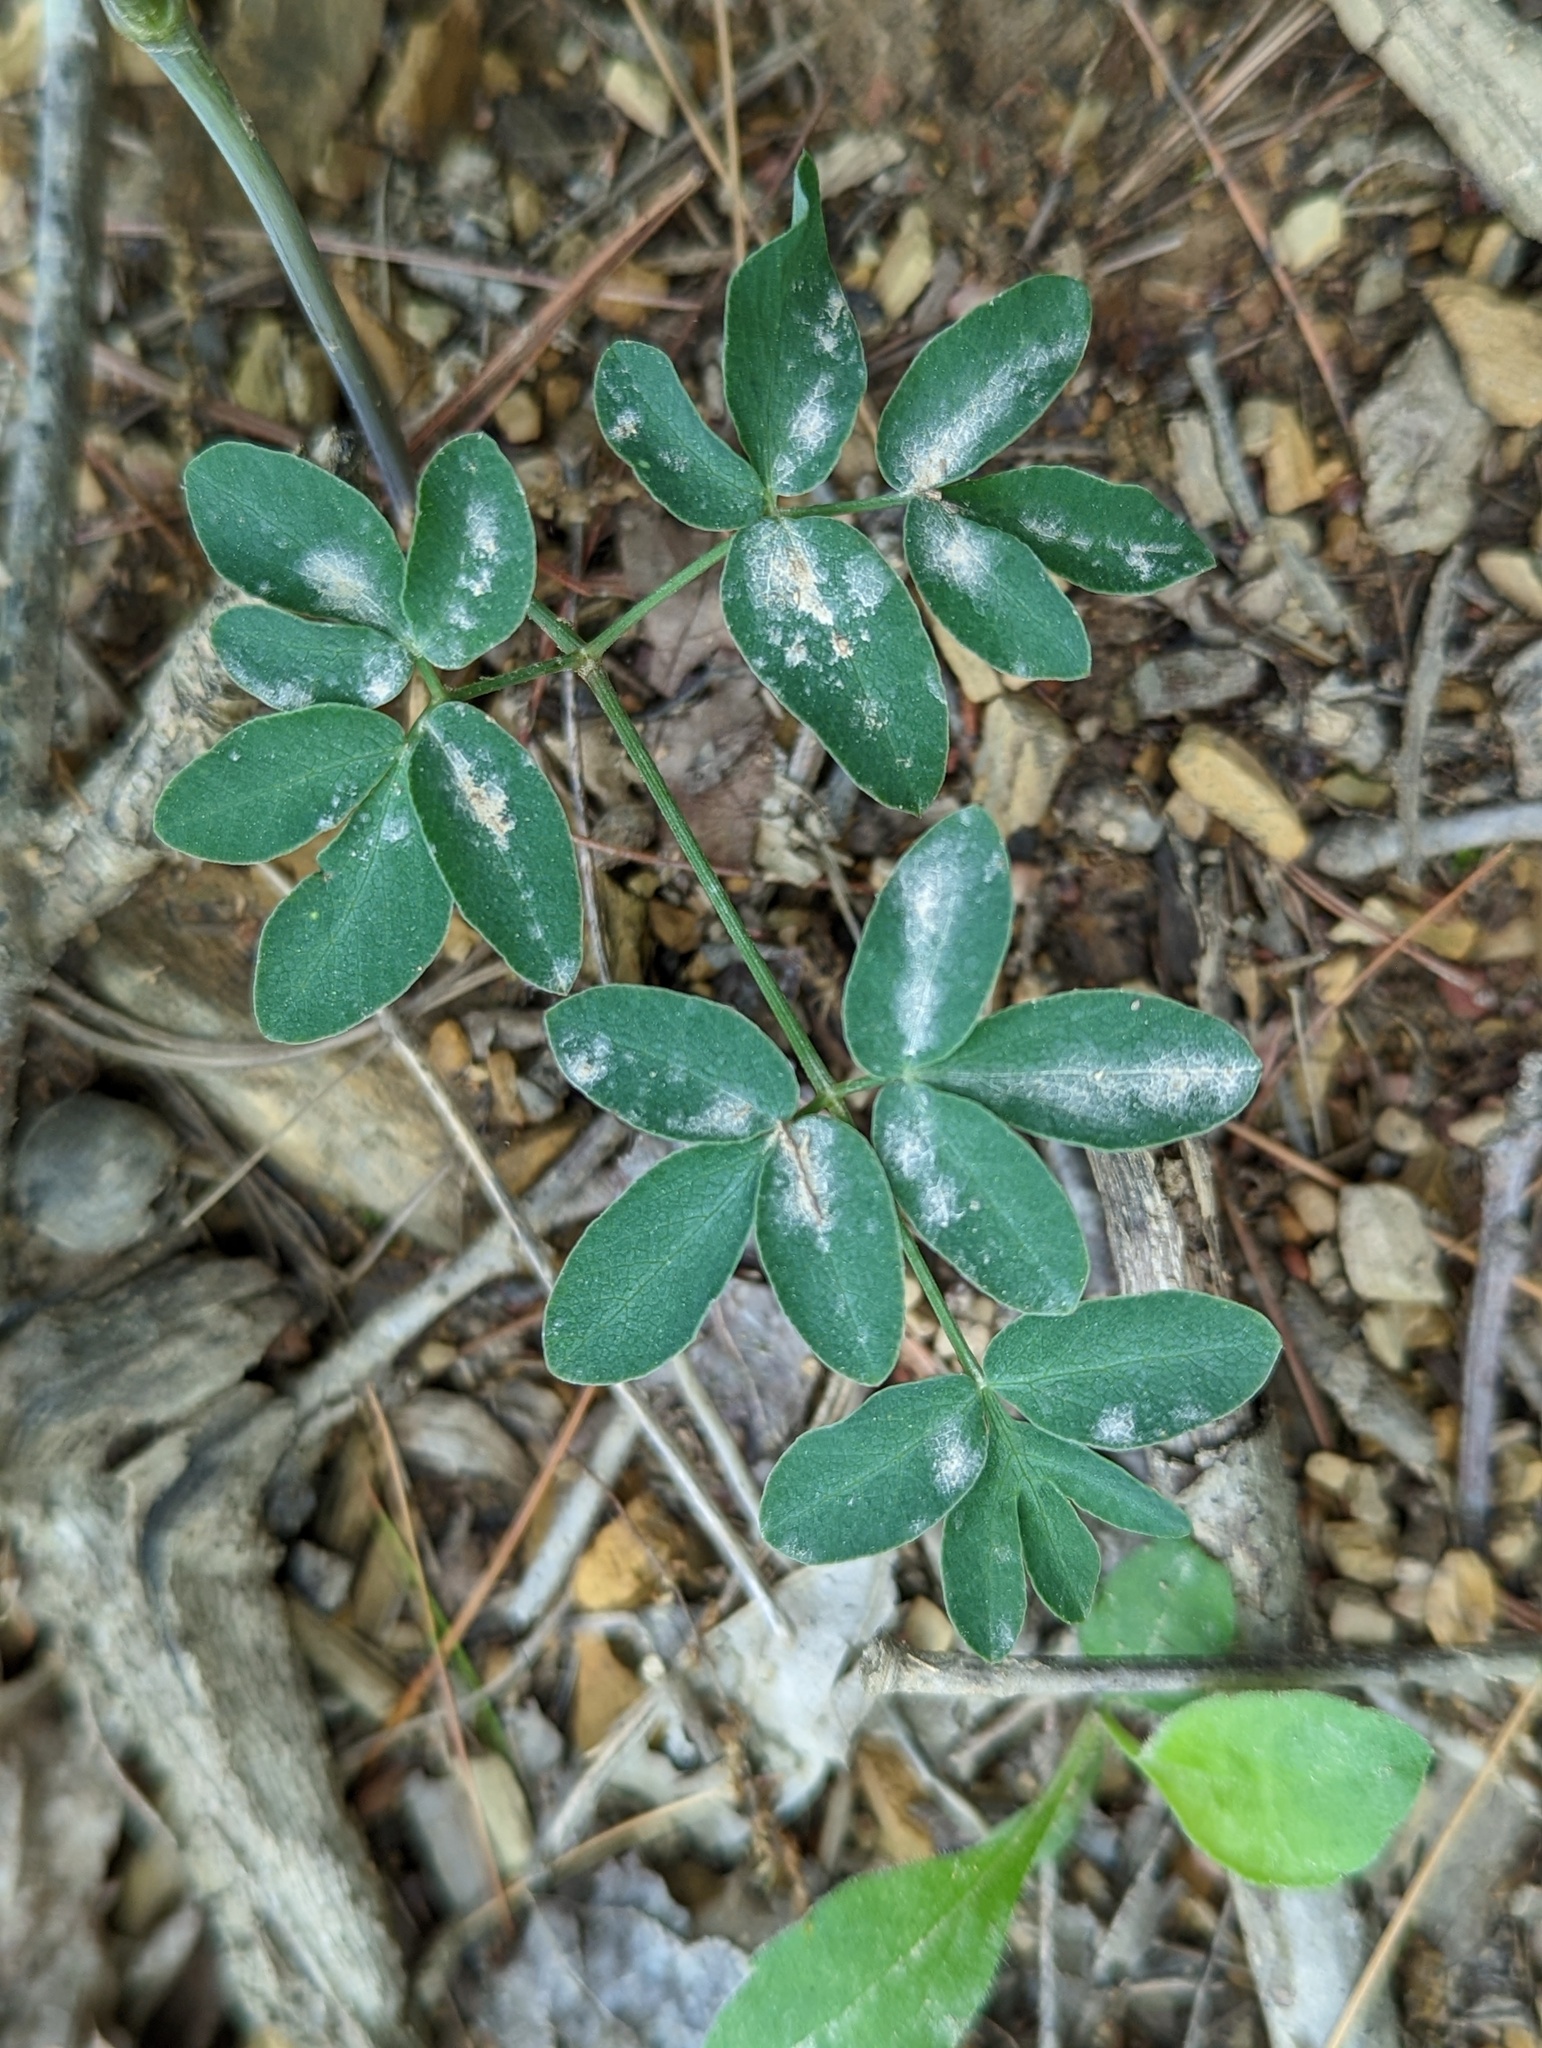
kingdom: Plantae
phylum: Tracheophyta
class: Magnoliopsida
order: Apiales
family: Apiaceae
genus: Taenidia
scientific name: Taenidia integerrima
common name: Golden alexander
